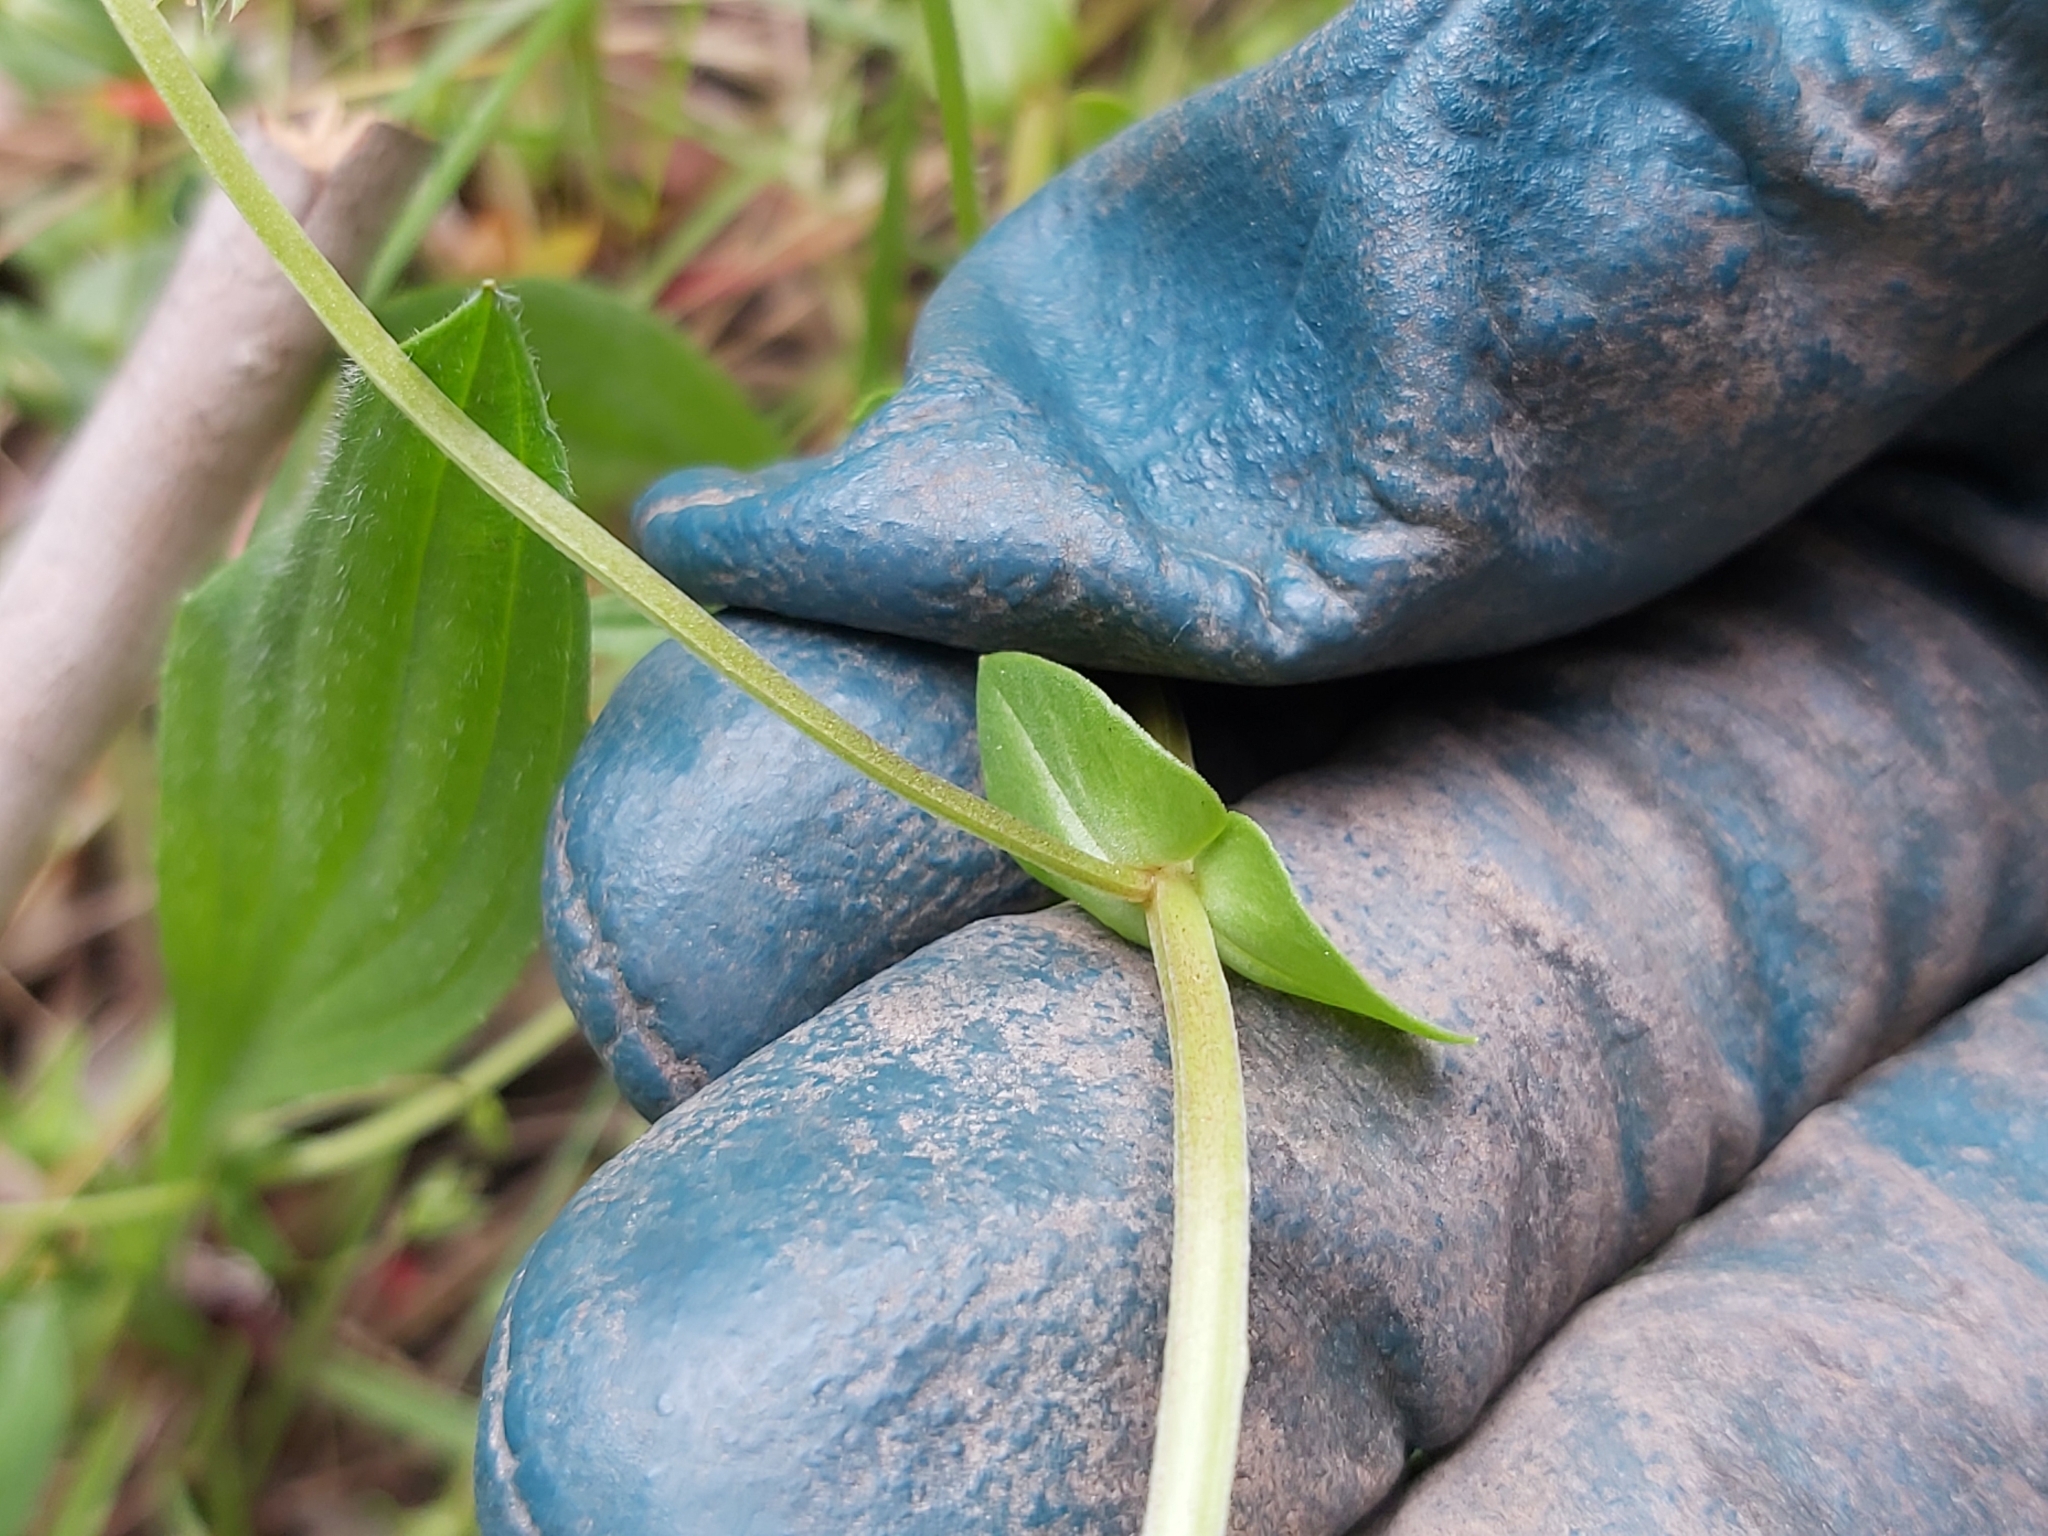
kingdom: Plantae
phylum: Tracheophyta
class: Magnoliopsida
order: Ericales
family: Primulaceae
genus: Lysimachia
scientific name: Lysimachia arvensis
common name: Scarlet pimpernel
